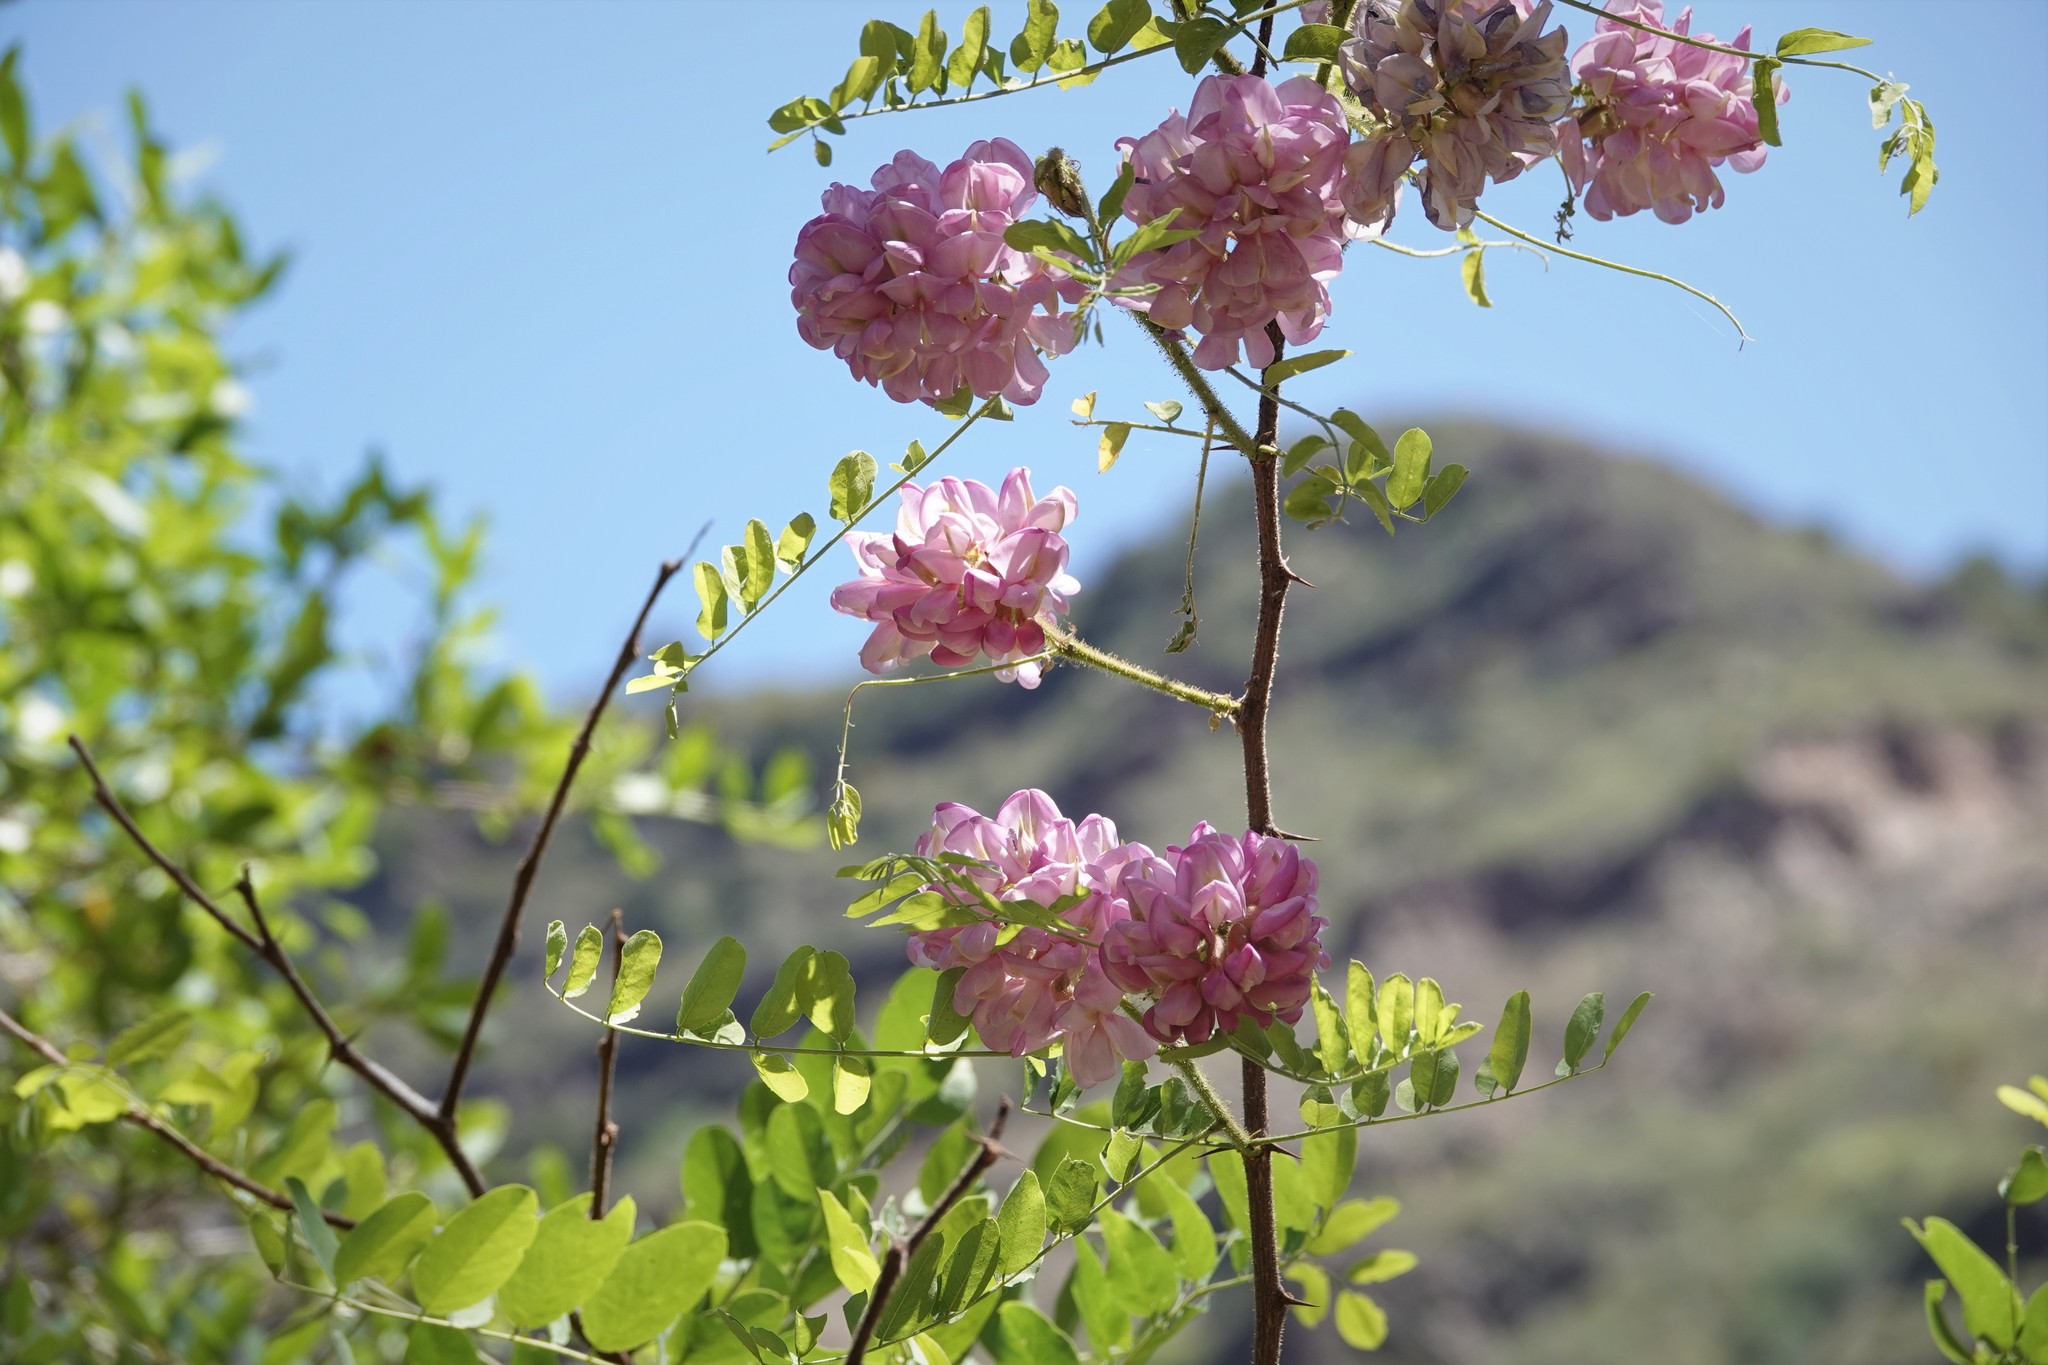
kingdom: Plantae
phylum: Tracheophyta
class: Magnoliopsida
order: Fabales
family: Fabaceae
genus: Robinia
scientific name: Robinia neomexicana
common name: New mexico locust
